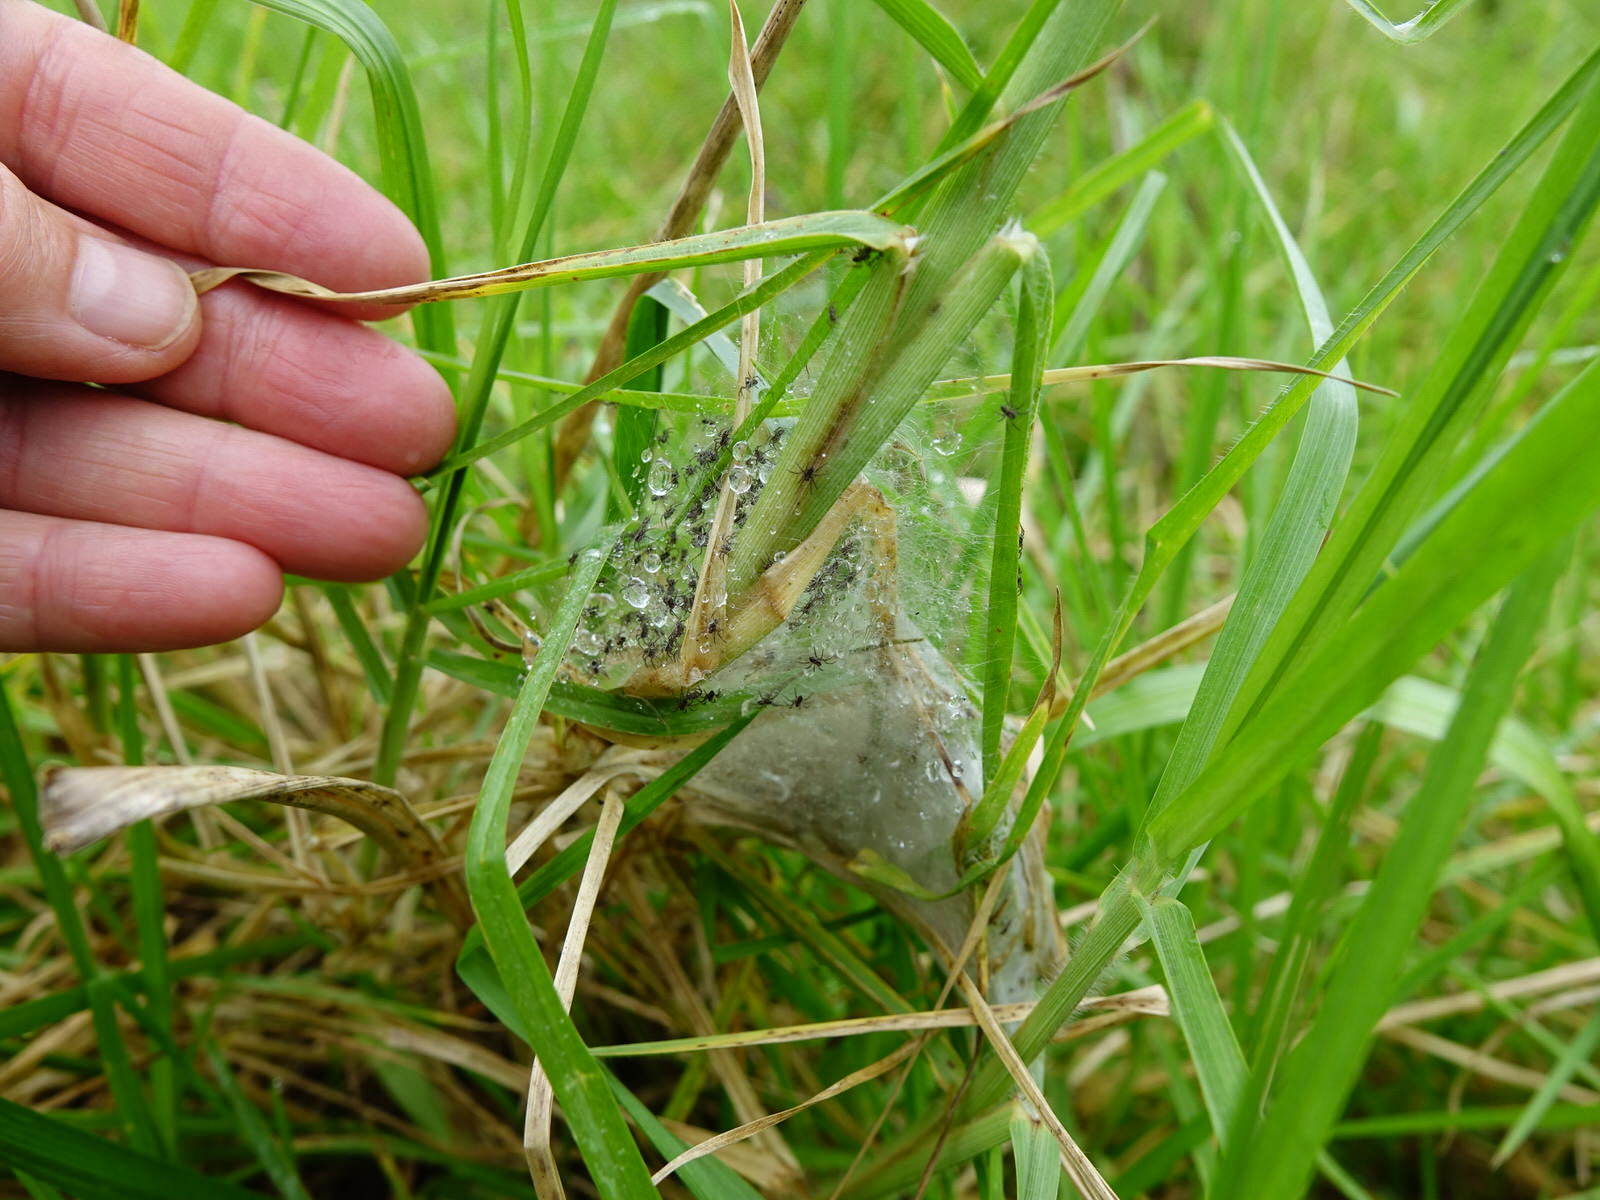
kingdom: Animalia
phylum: Arthropoda
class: Arachnida
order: Araneae
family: Pisauridae
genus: Dolomedes
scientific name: Dolomedes minor
